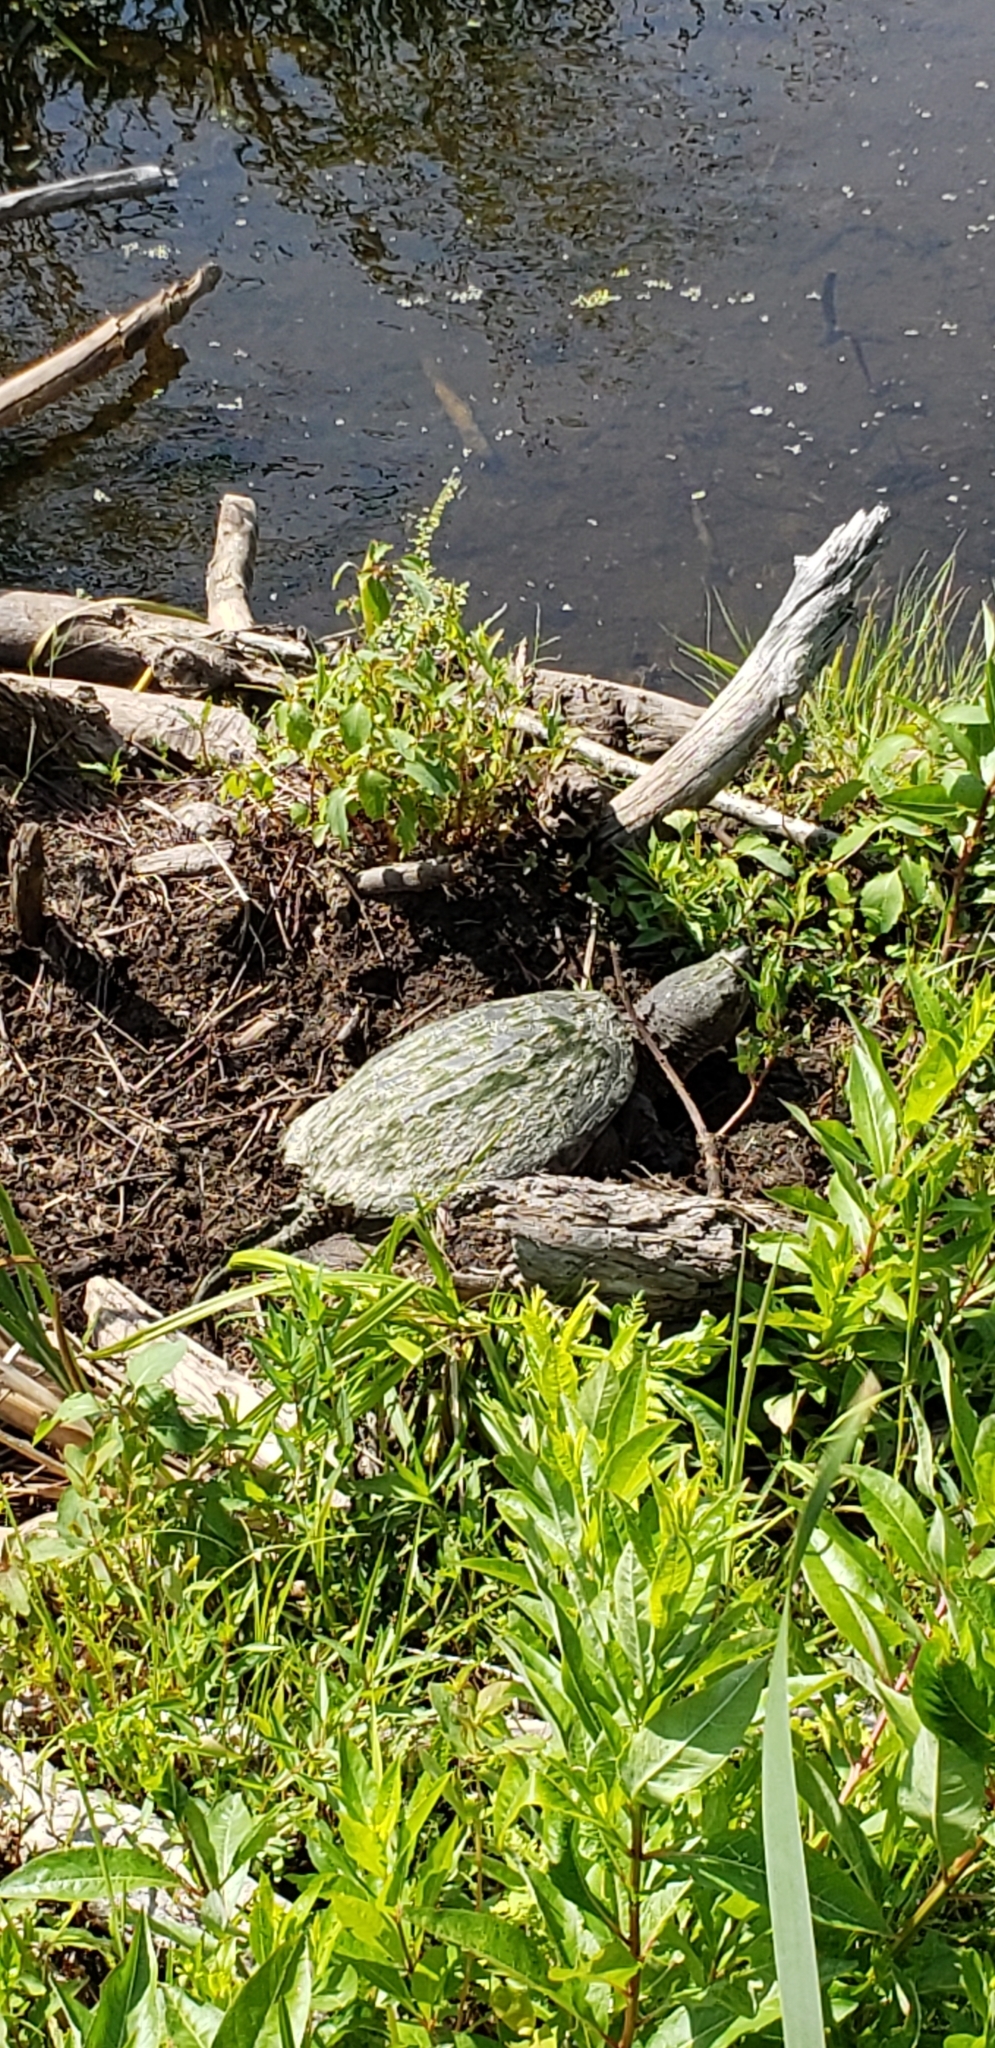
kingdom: Animalia
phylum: Chordata
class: Testudines
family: Chelydridae
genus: Chelydra
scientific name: Chelydra serpentina
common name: Common snapping turtle
